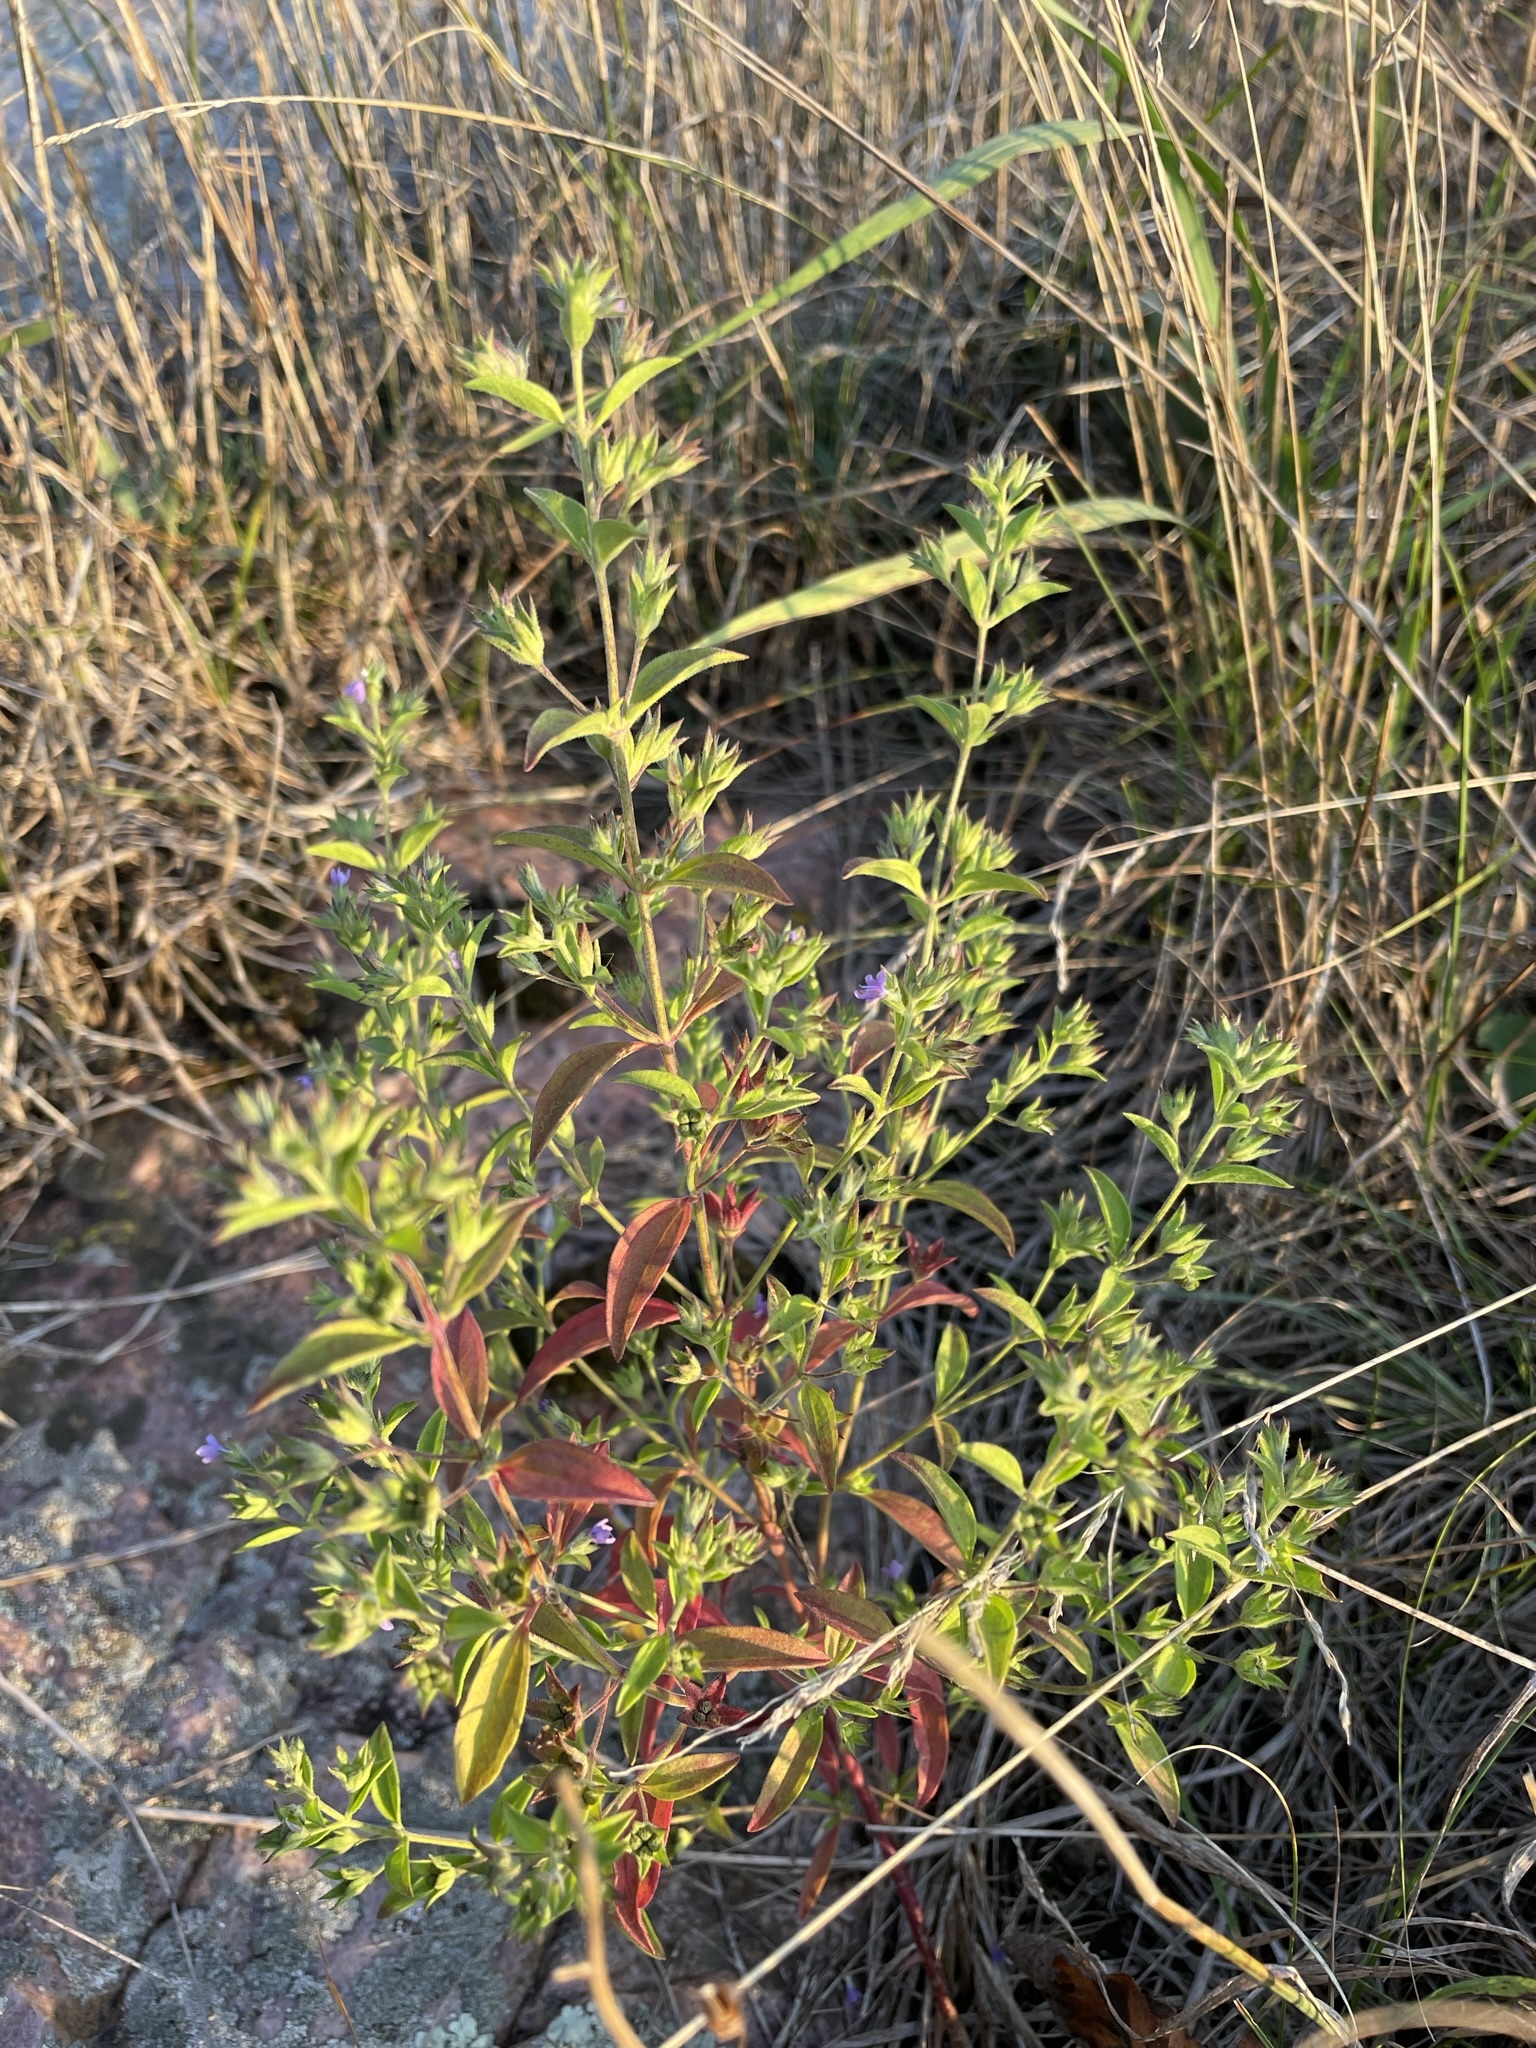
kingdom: Plantae
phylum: Tracheophyta
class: Magnoliopsida
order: Lamiales
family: Lamiaceae
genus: Trichostema
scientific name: Trichostema brachiatum
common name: False pennyroyal
